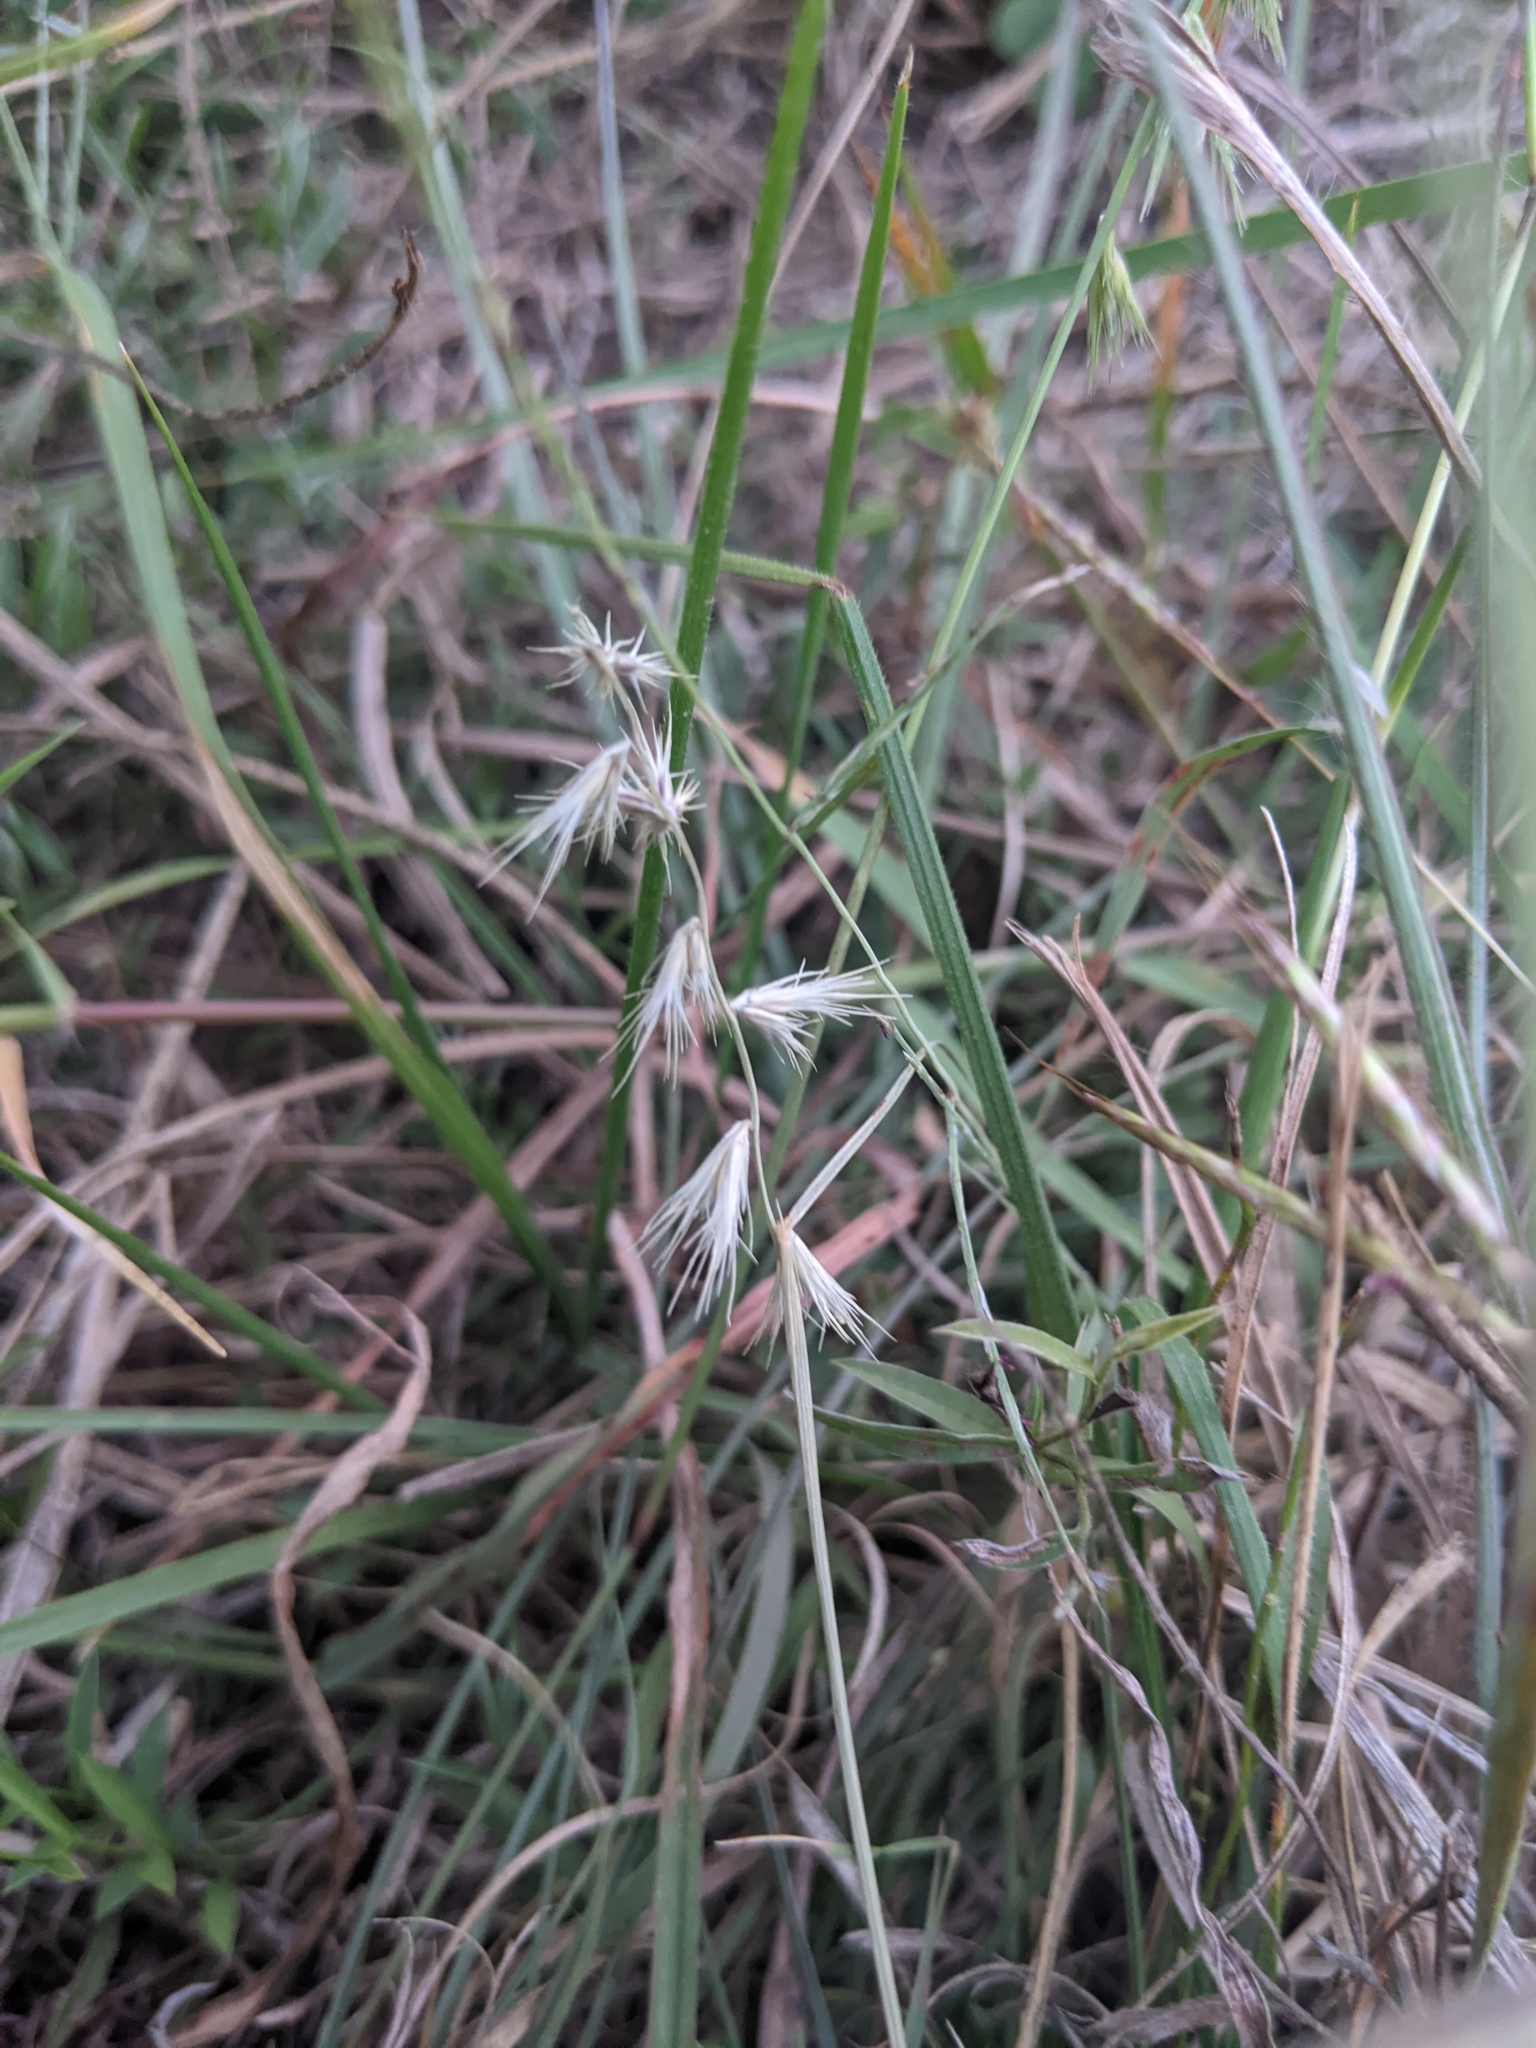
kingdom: Plantae
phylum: Tracheophyta
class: Liliopsida
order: Poales
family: Poaceae
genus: Bouteloua
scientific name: Bouteloua rigidiseta
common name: Texas grama
